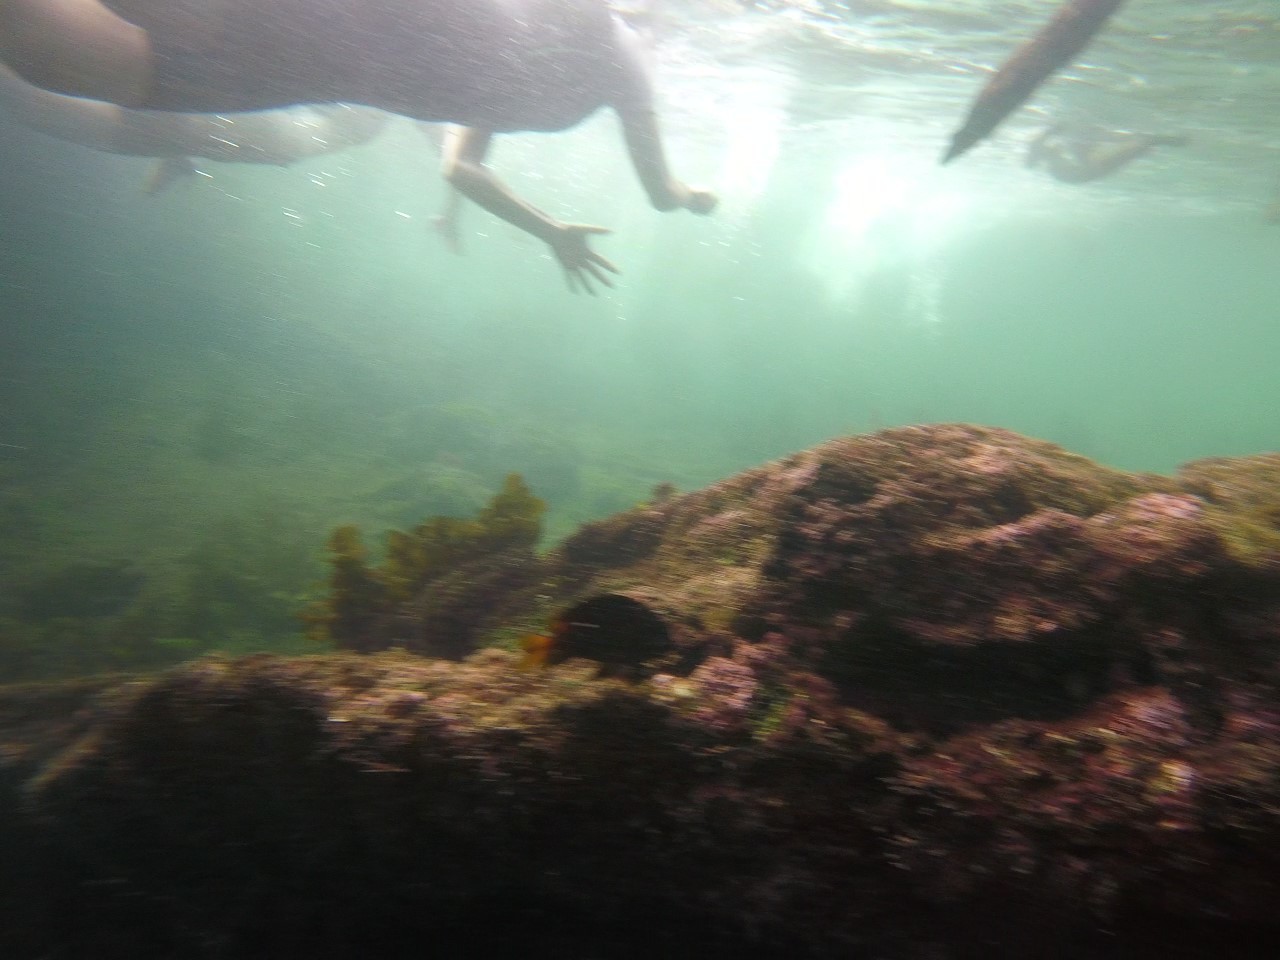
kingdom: Animalia
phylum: Chordata
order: Perciformes
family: Pomacentridae
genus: Stegastes
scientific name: Stegastes arcifrons
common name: Galapagos gregory
